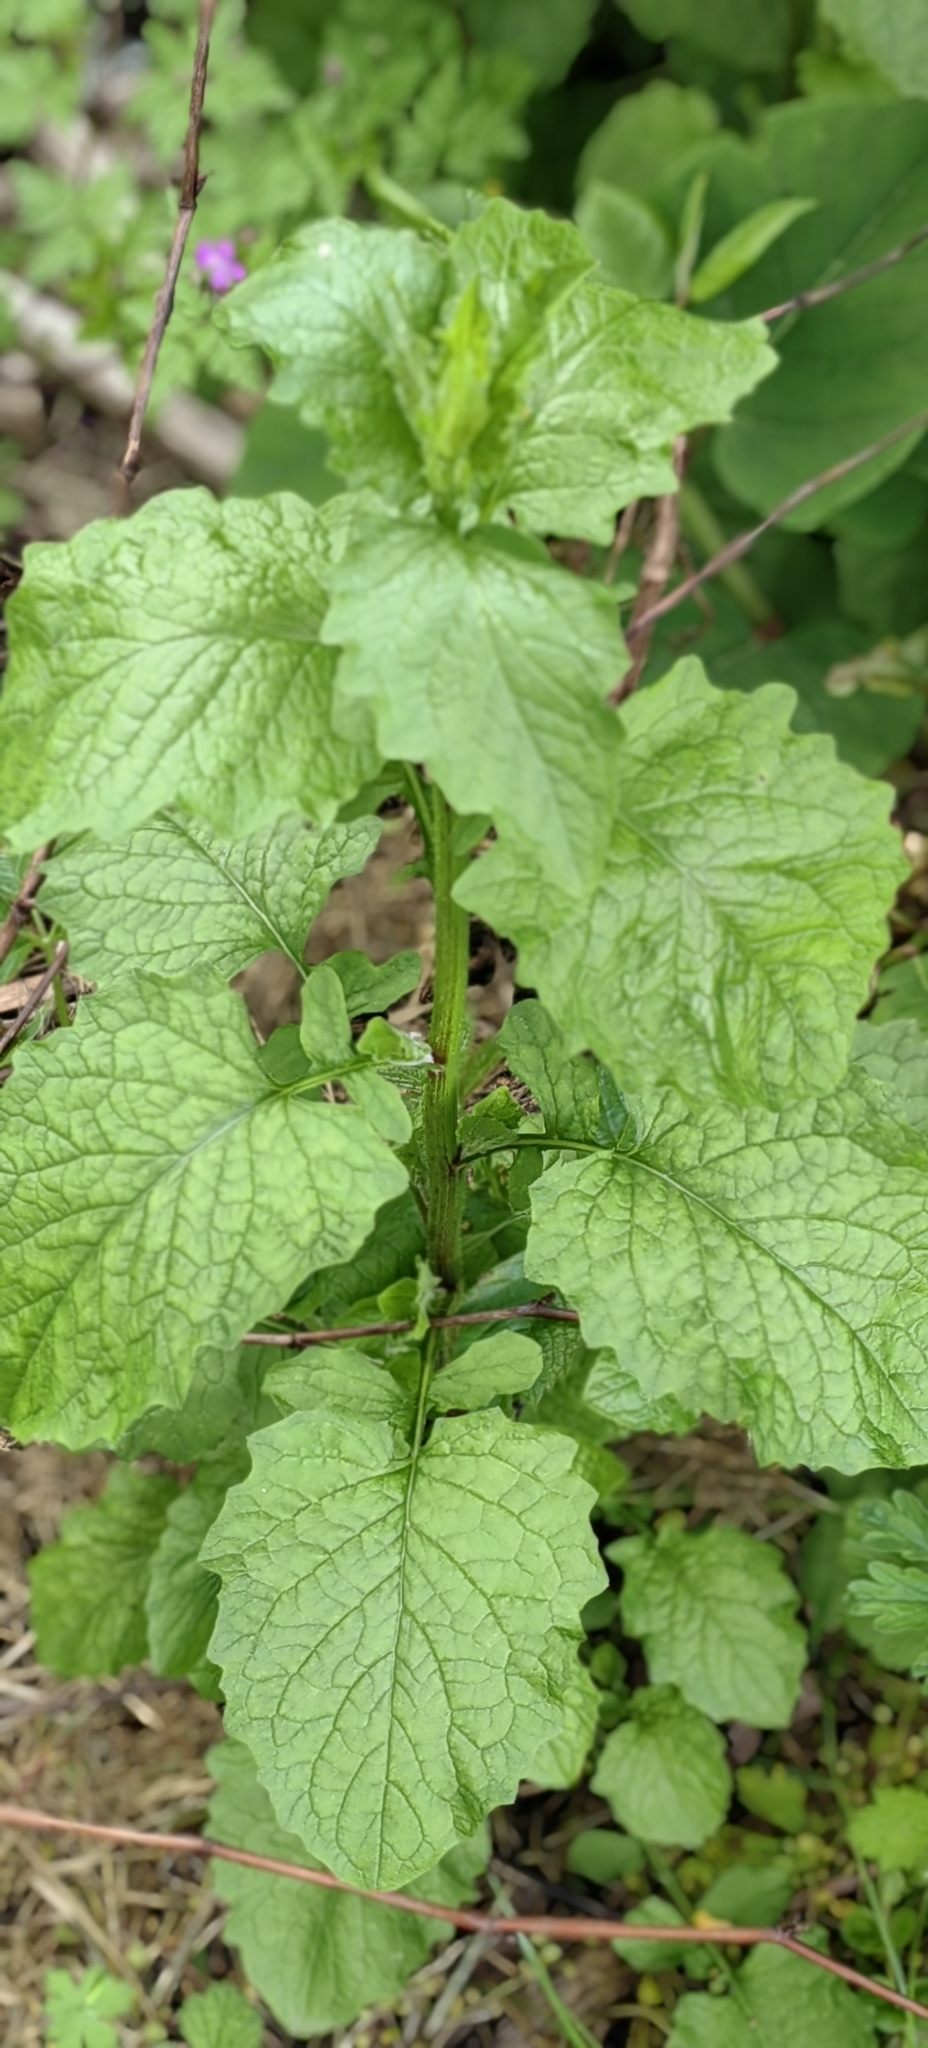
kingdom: Plantae
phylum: Tracheophyta
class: Magnoliopsida
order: Asterales
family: Asteraceae
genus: Lapsana
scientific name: Lapsana communis
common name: Nipplewort
